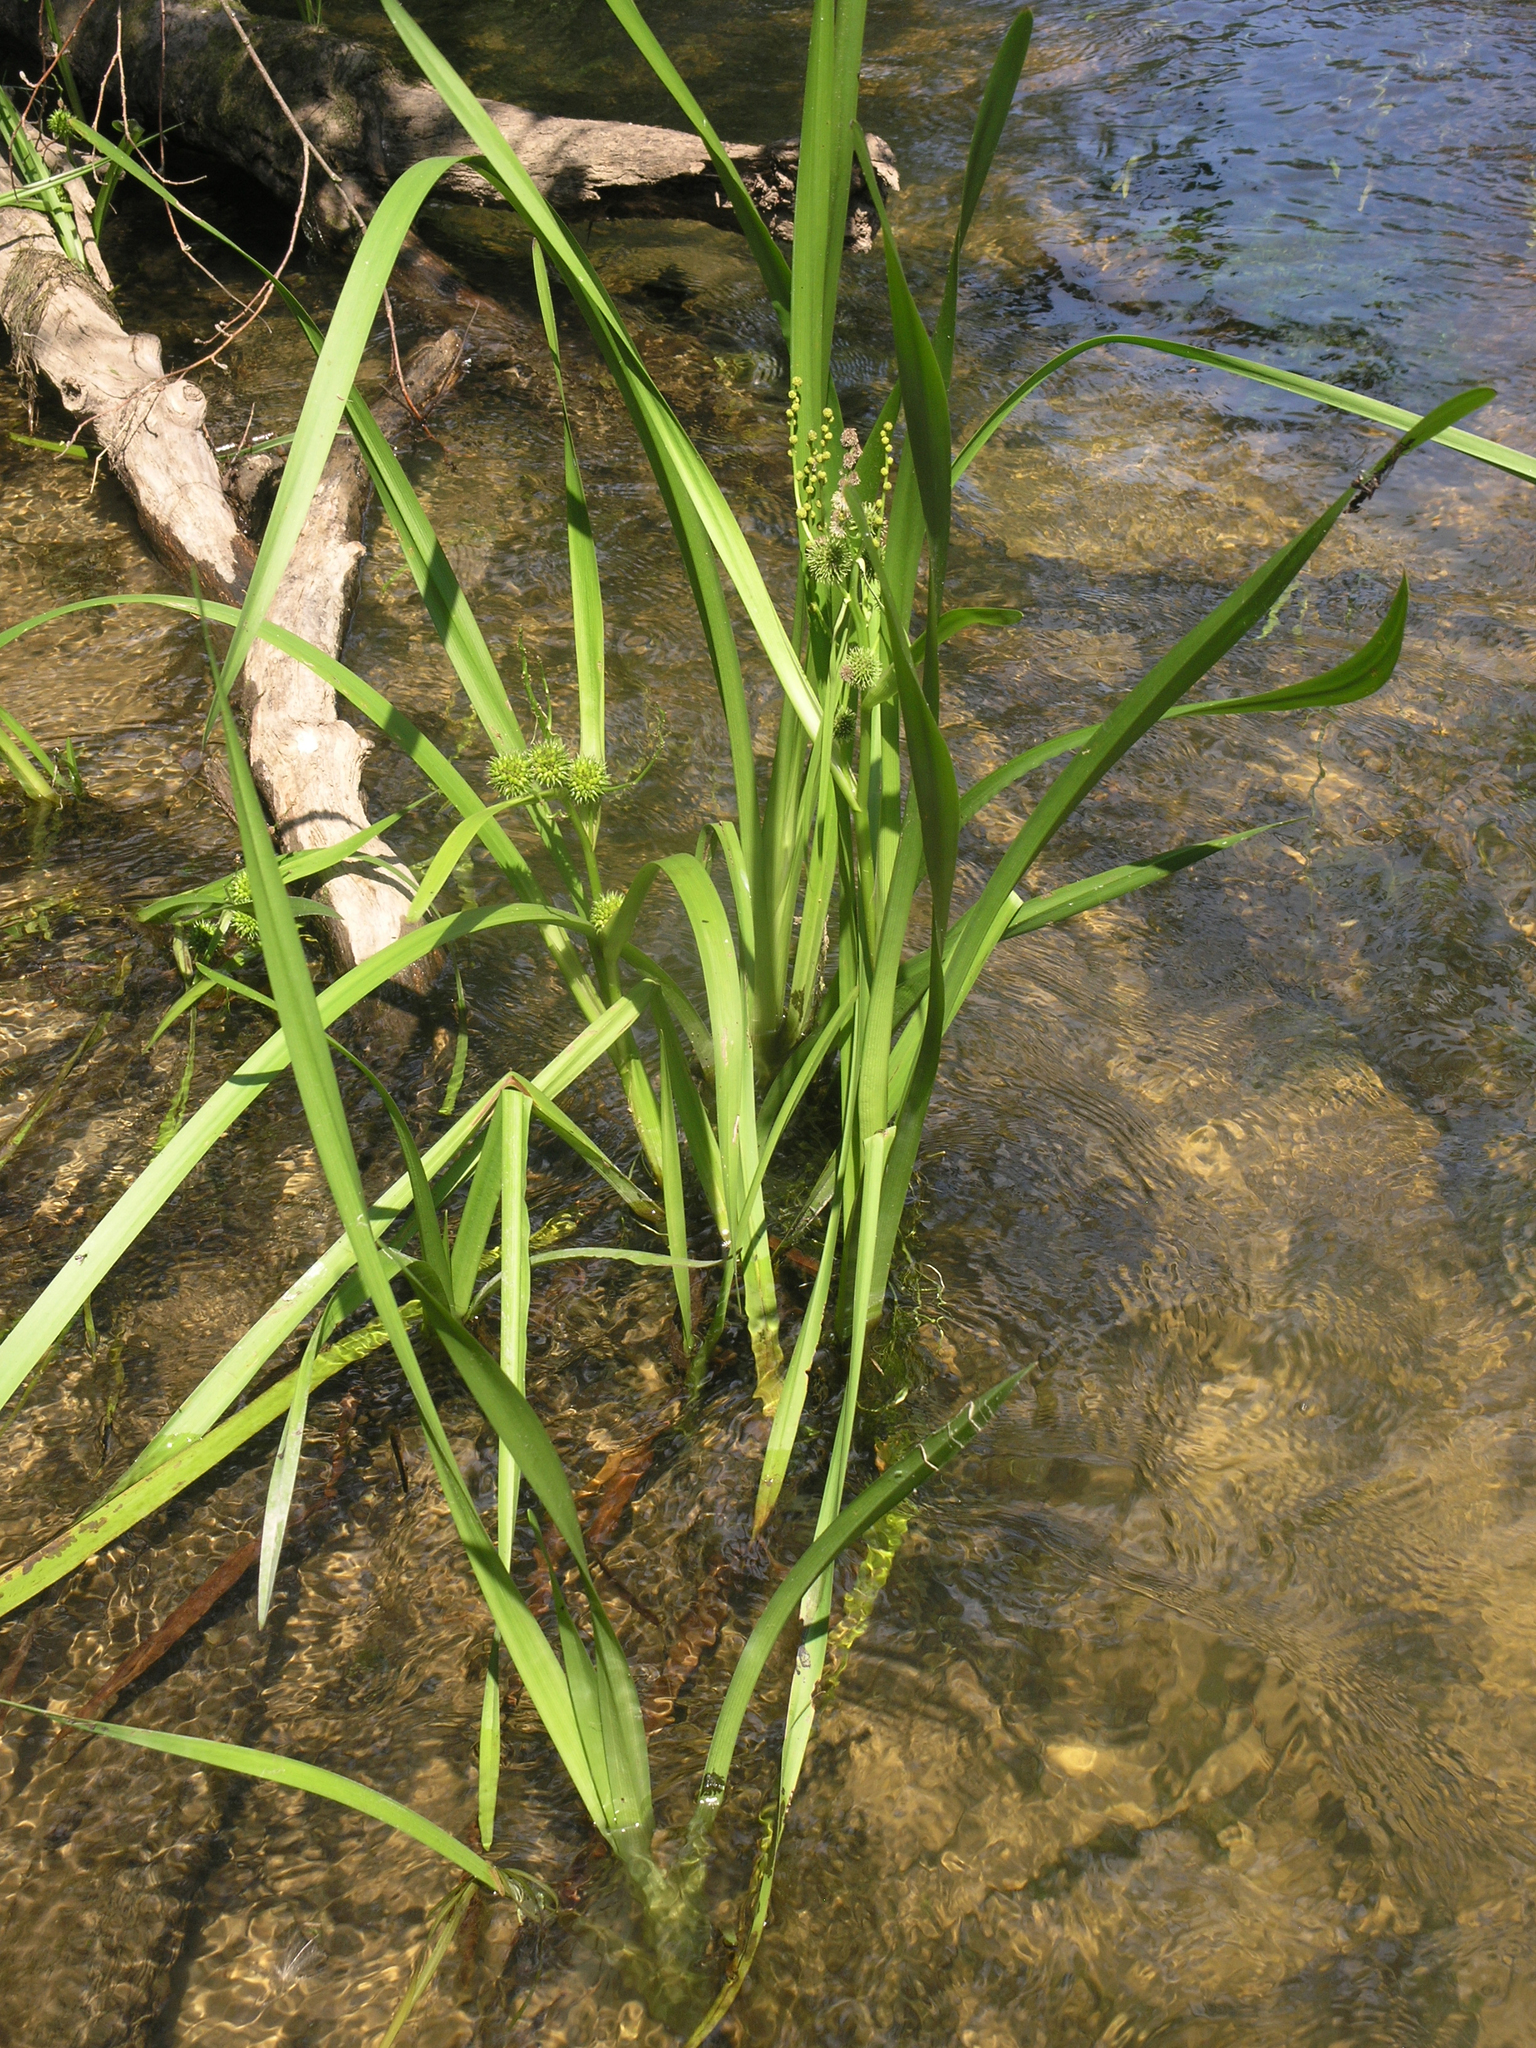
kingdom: Plantae
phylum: Tracheophyta
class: Liliopsida
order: Poales
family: Typhaceae
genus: Sparganium
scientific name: Sparganium erectum
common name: Branched bur-reed
